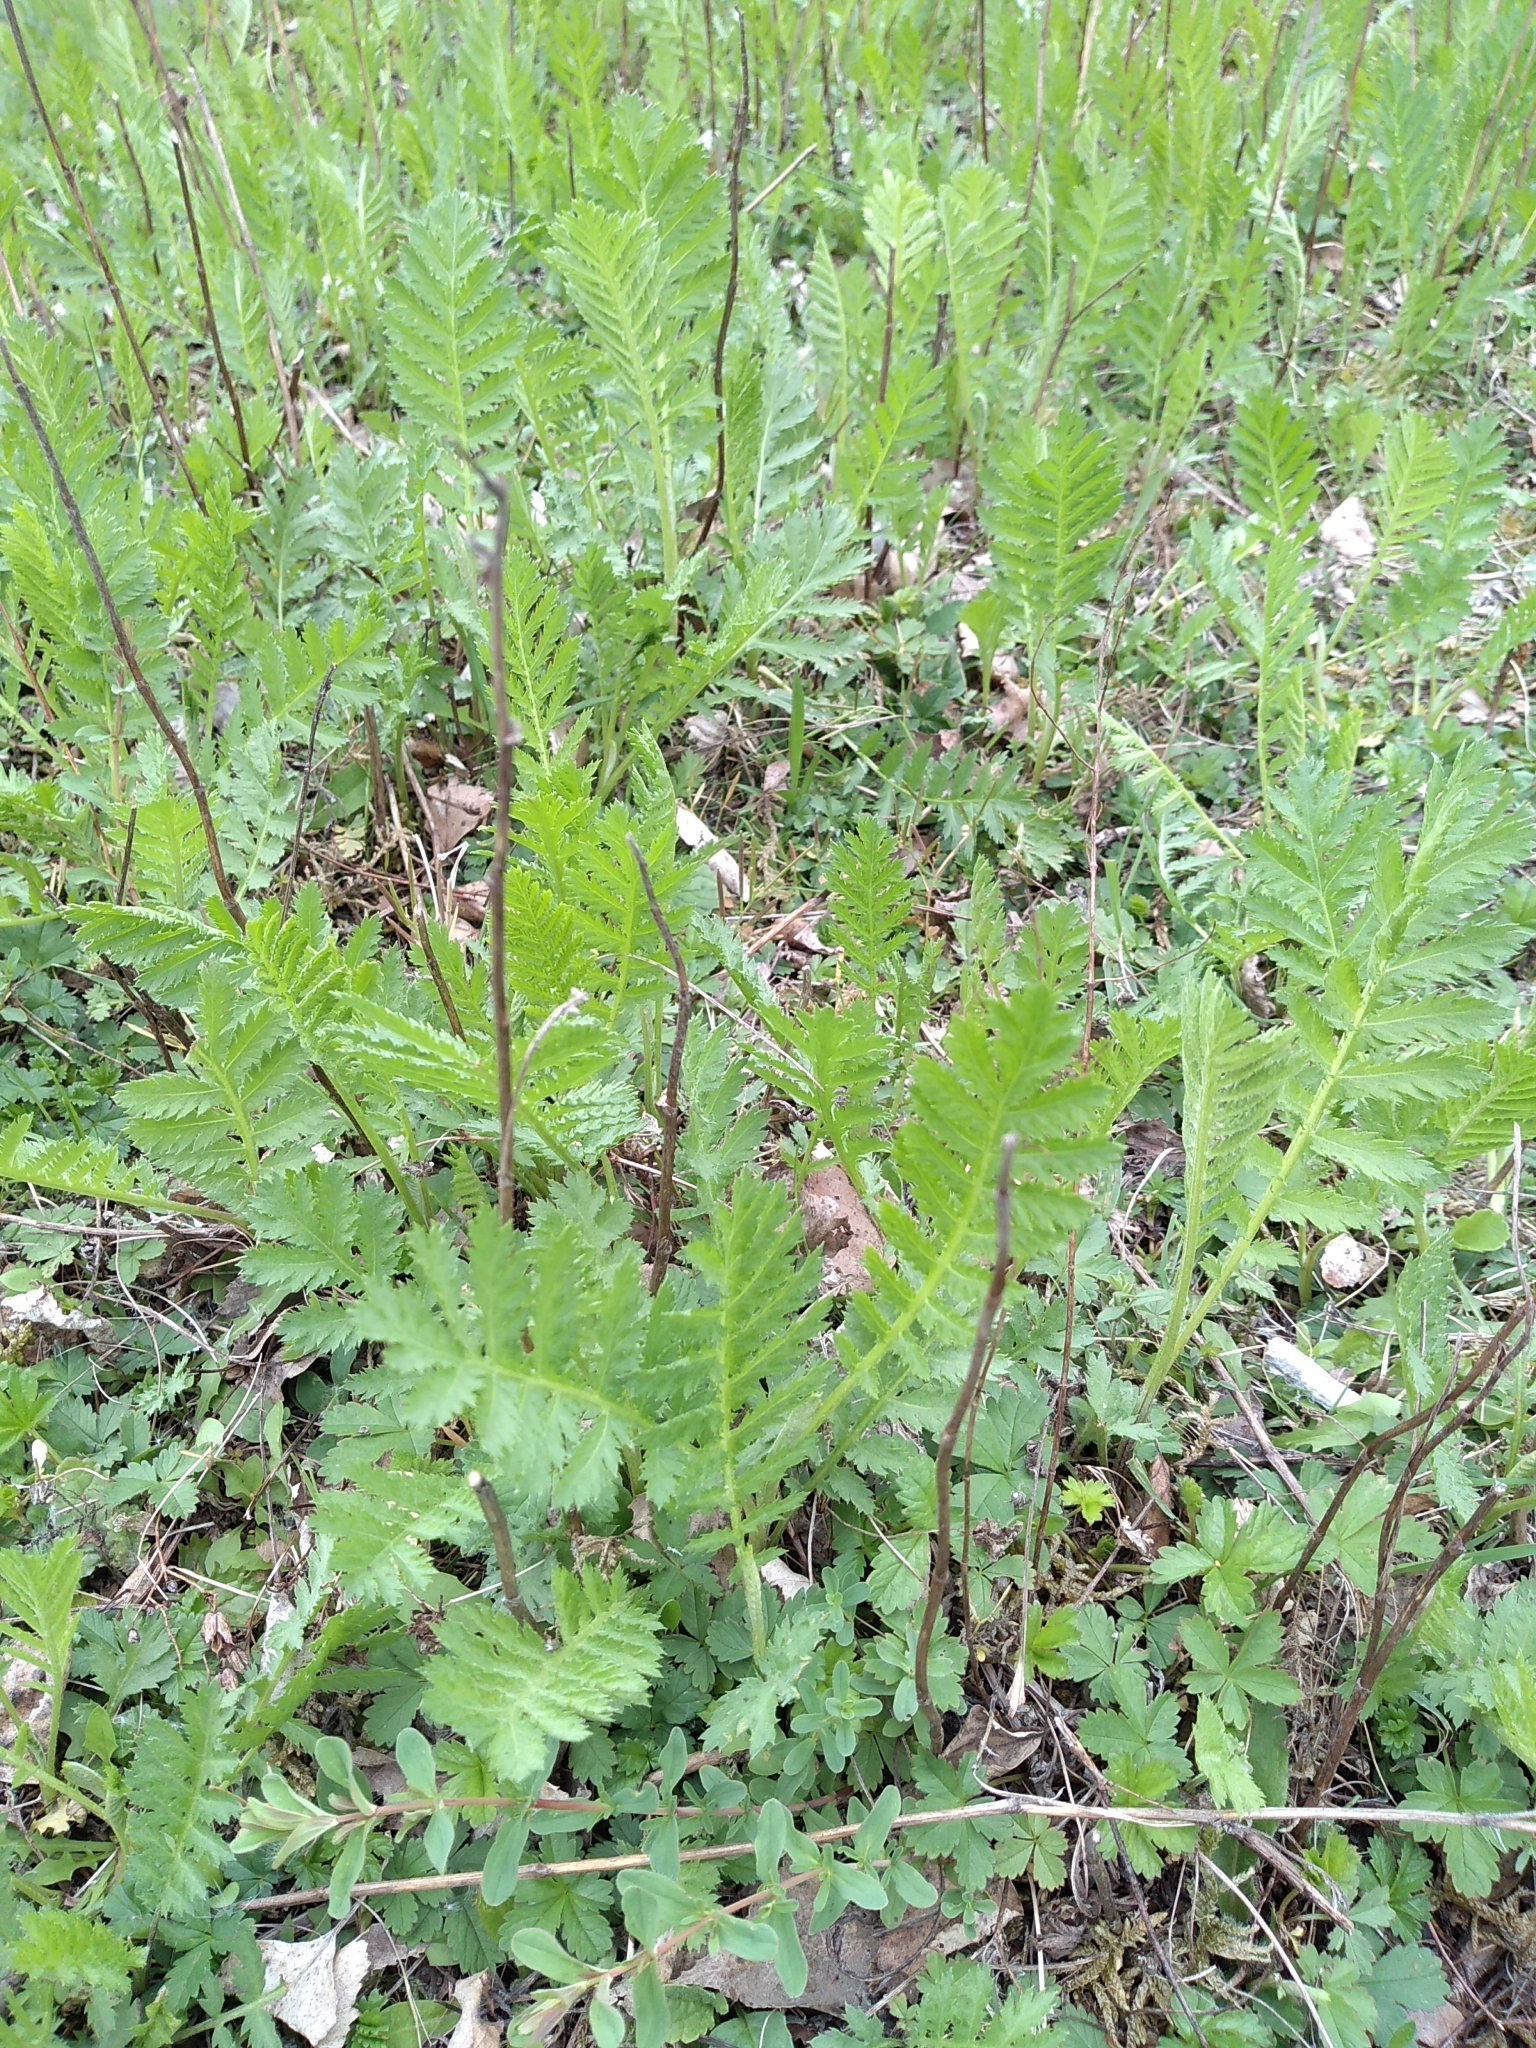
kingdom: Plantae
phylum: Tracheophyta
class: Magnoliopsida
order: Asterales
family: Asteraceae
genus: Tanacetum
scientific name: Tanacetum vulgare
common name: Common tansy
